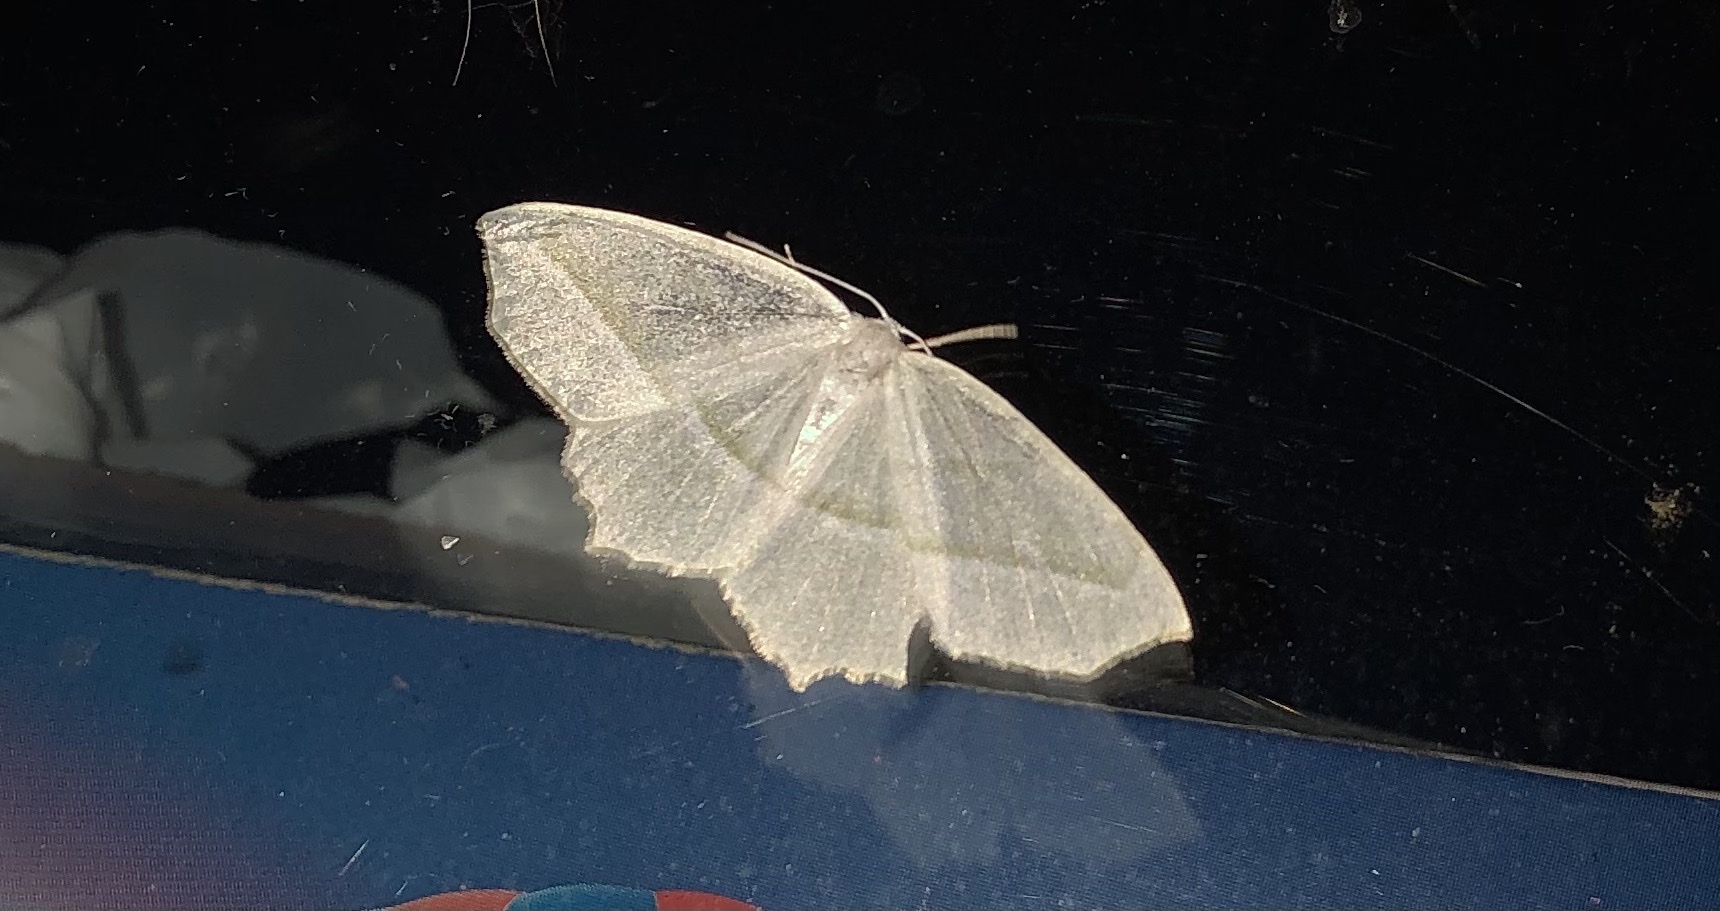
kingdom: Animalia
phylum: Arthropoda
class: Insecta
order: Lepidoptera
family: Geometridae
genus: Campaea
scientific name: Campaea perlata
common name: Fringed looper
